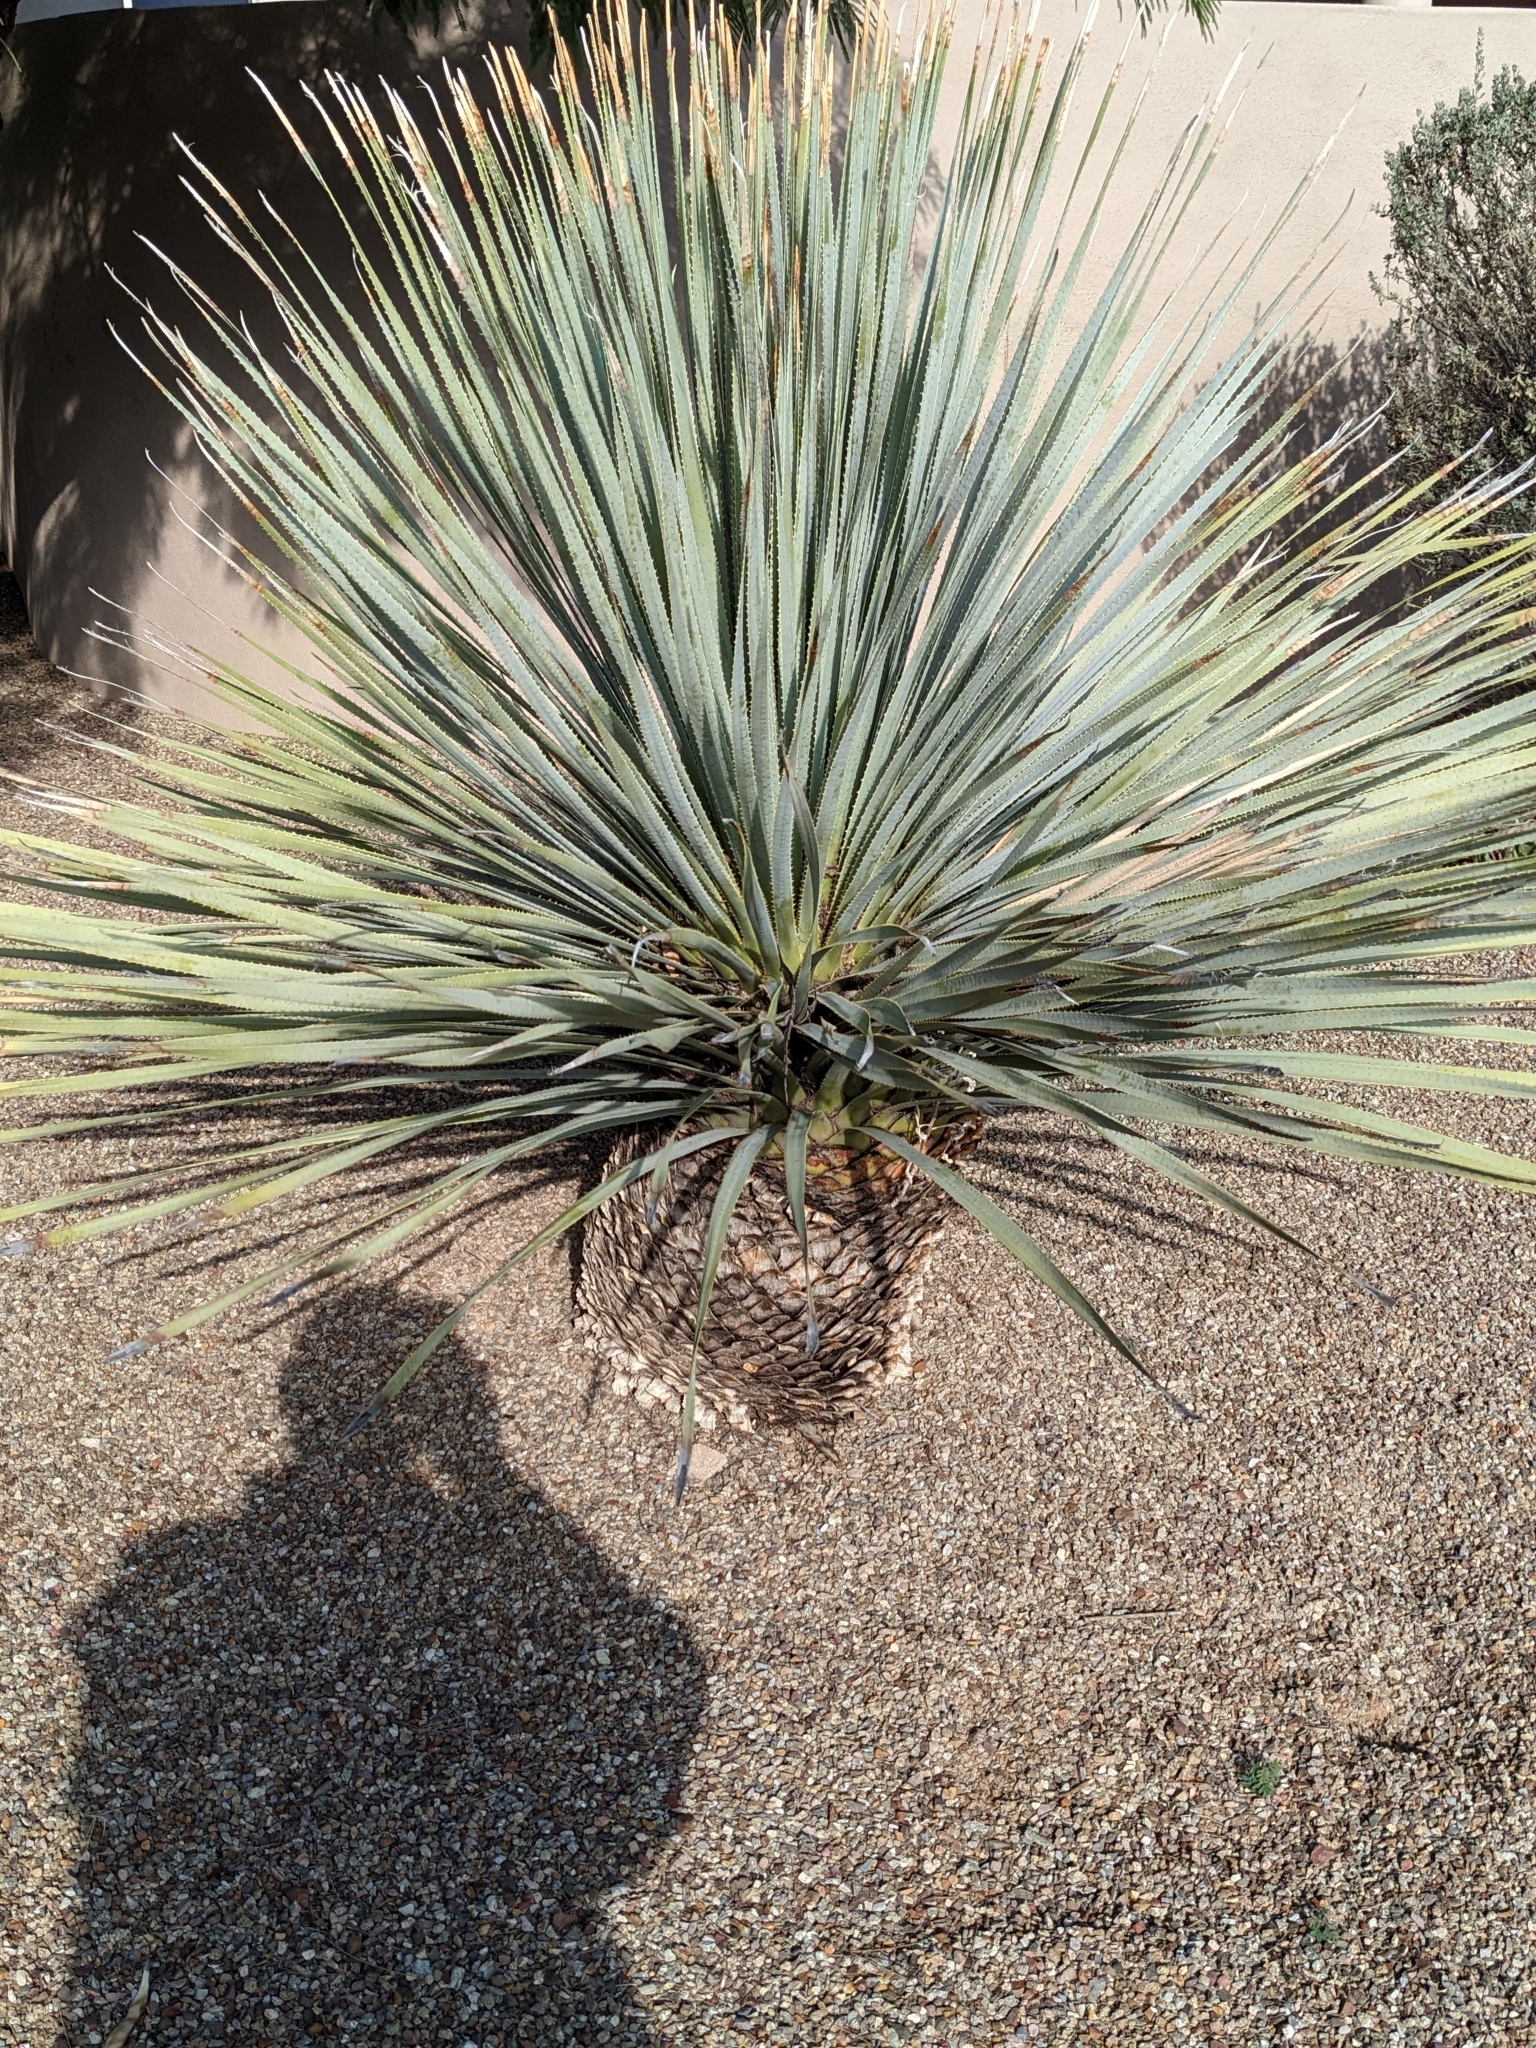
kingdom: Plantae
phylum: Tracheophyta
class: Liliopsida
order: Asparagales
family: Asparagaceae
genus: Dasylirion
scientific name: Dasylirion wheeleri
